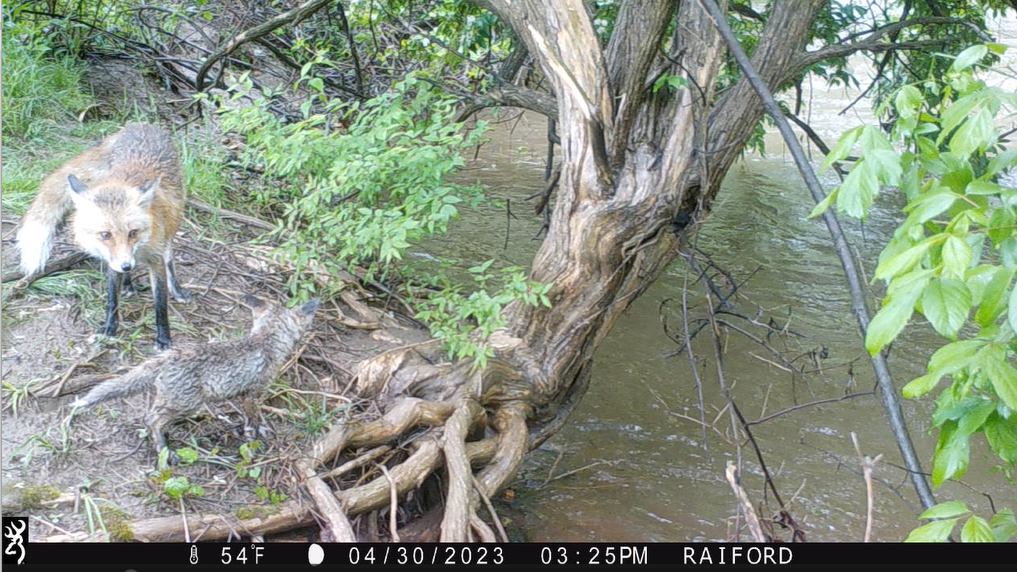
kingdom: Animalia
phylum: Chordata
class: Mammalia
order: Carnivora
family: Canidae
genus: Vulpes
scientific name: Vulpes vulpes
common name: Red fox
